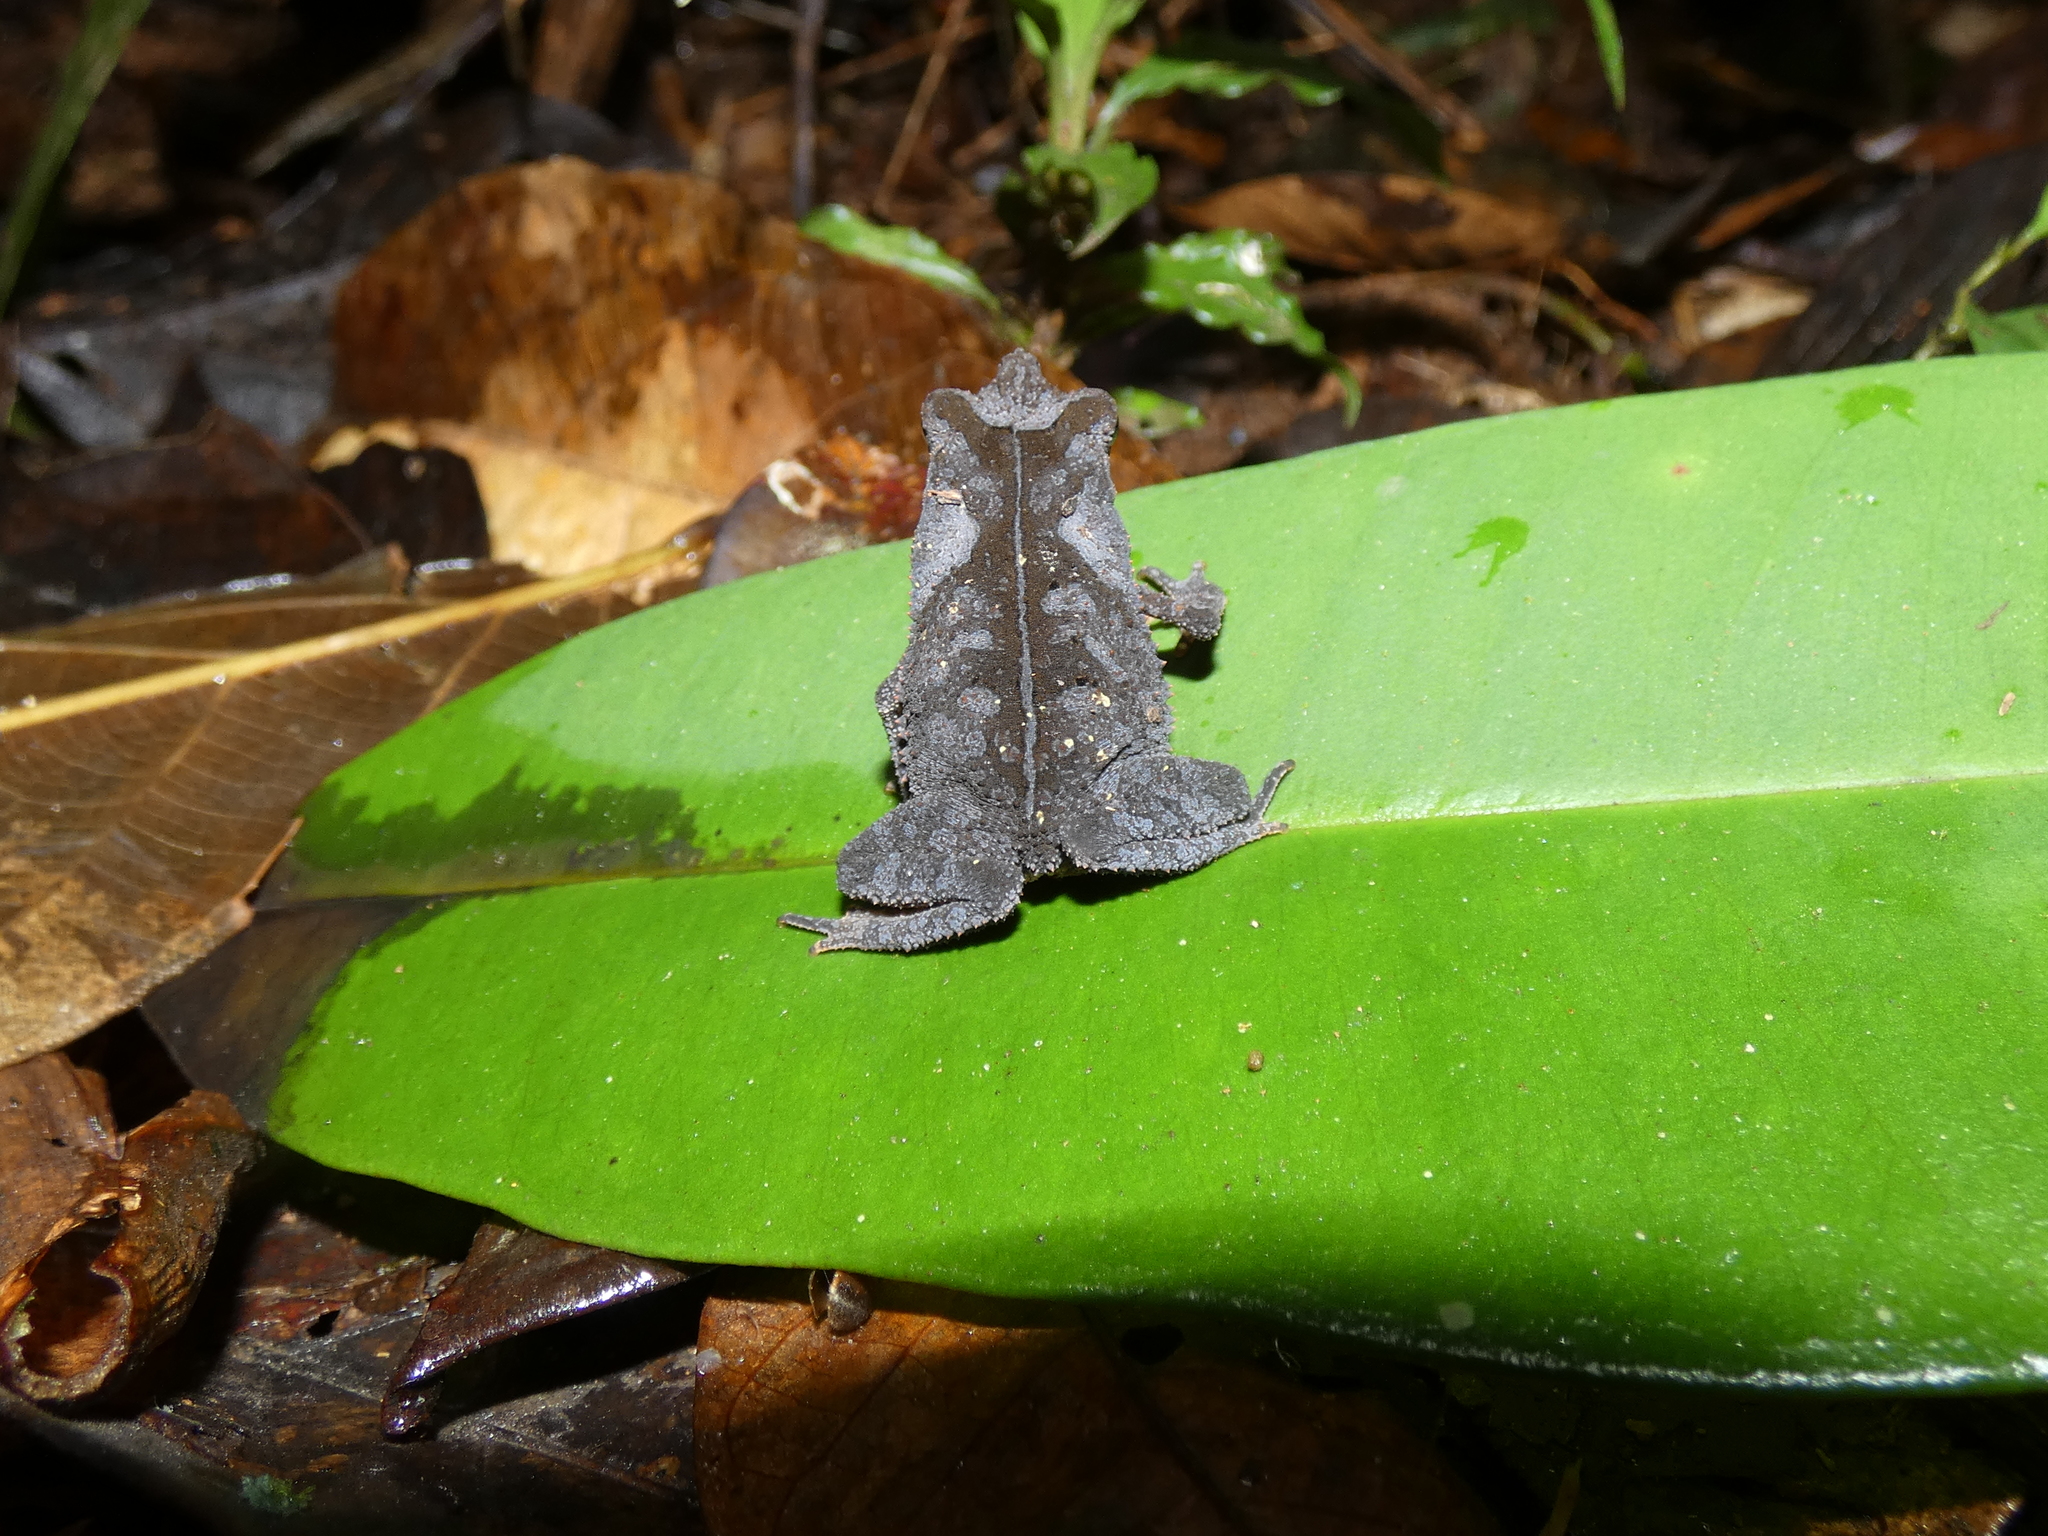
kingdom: Animalia
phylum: Chordata
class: Amphibia
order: Anura
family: Bufonidae
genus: Rhinella
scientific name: Rhinella margaritifera
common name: Mitred toad
